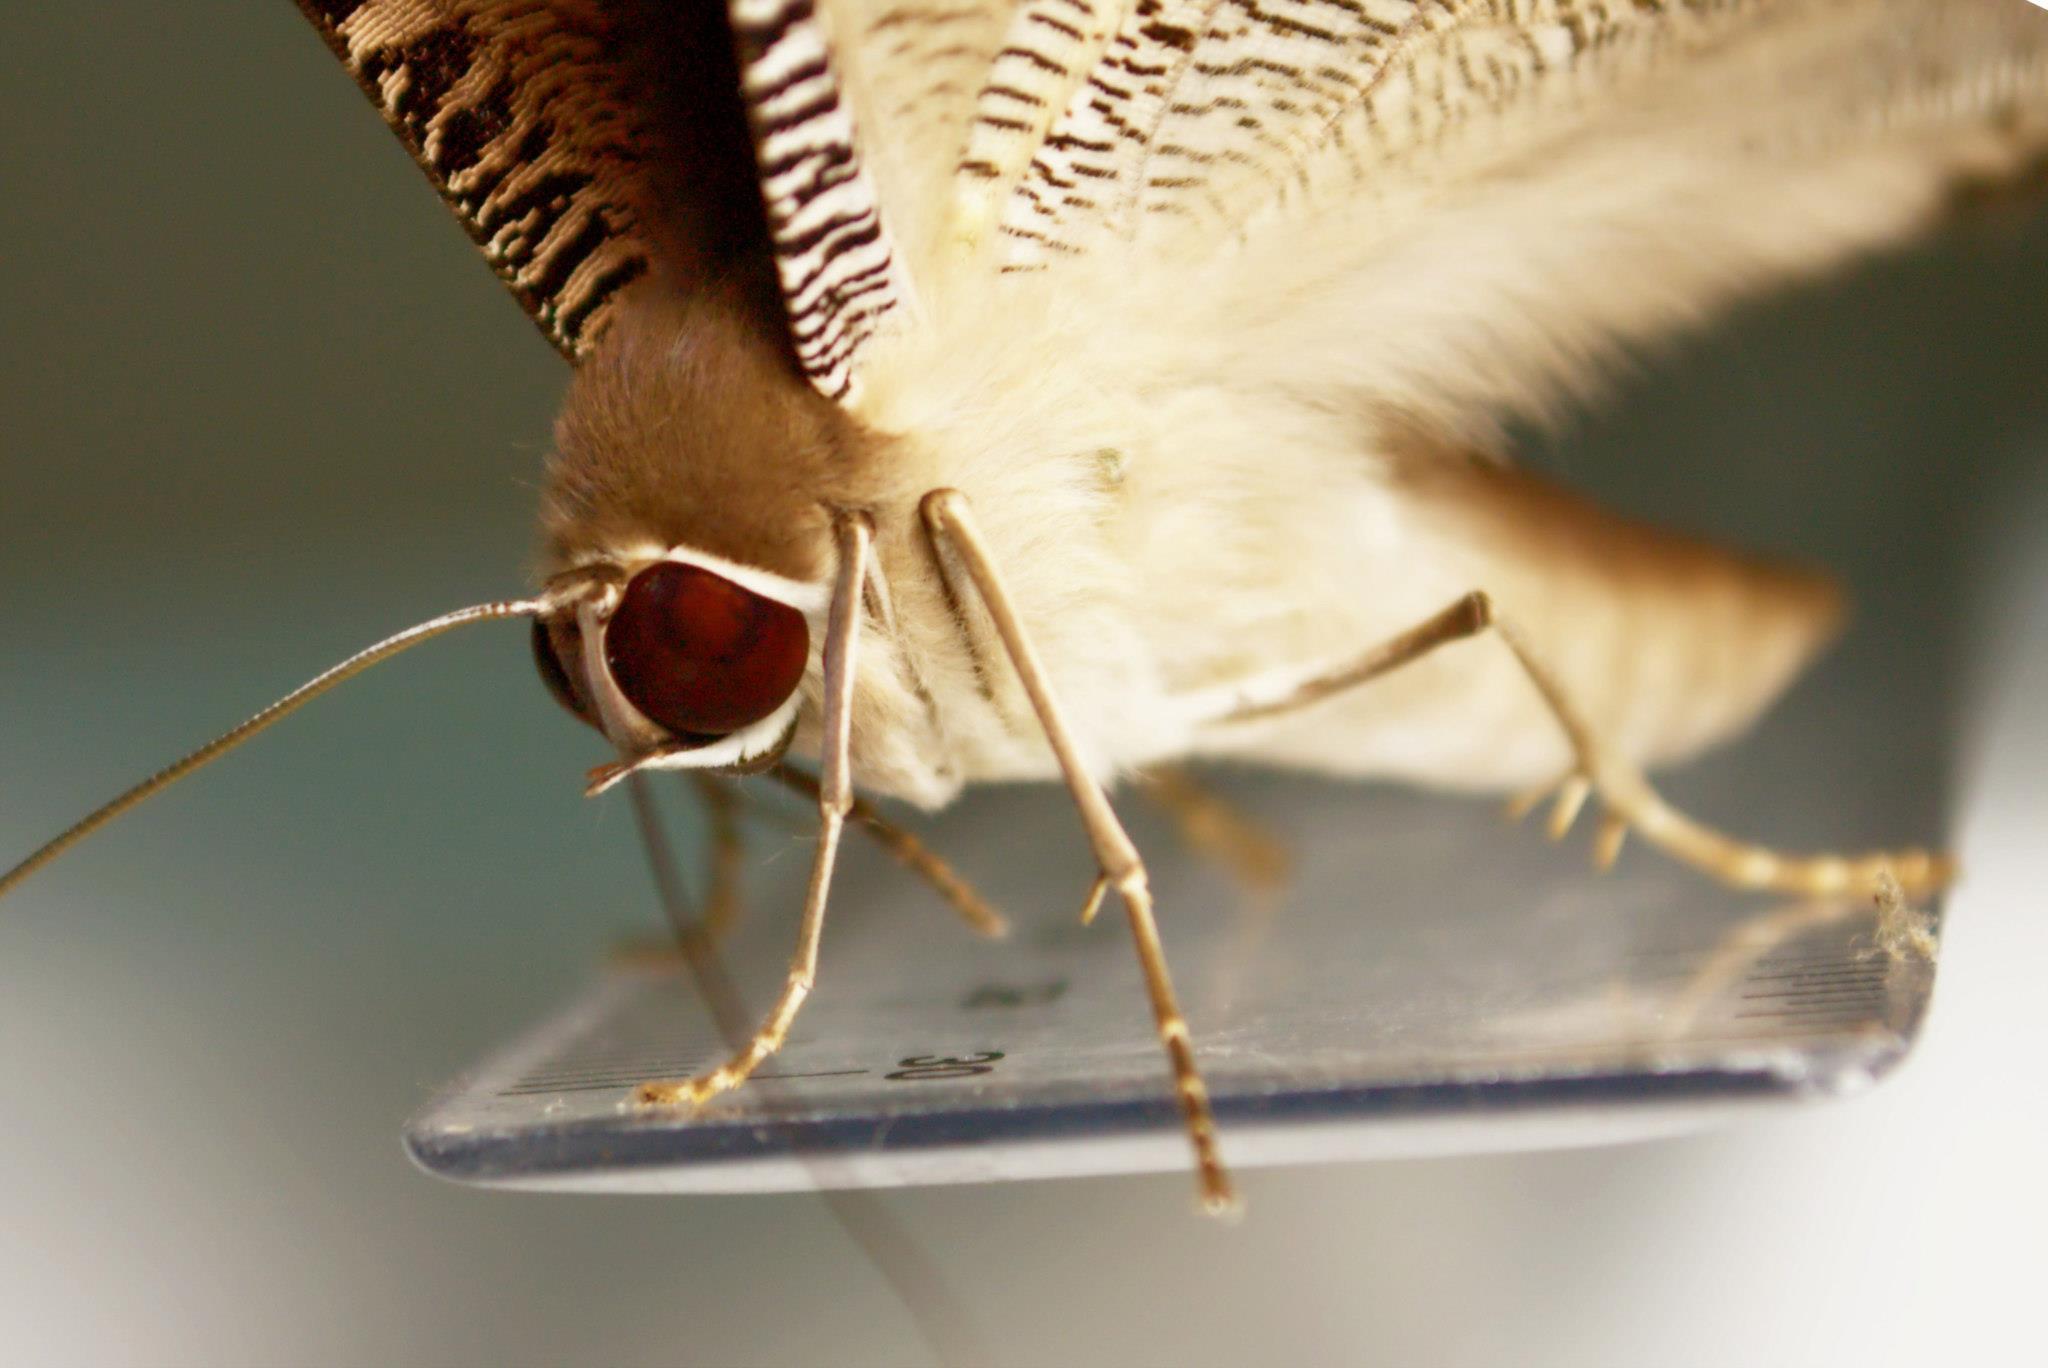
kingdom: Animalia
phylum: Arthropoda
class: Insecta
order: Lepidoptera
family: Uraniidae
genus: Lyssa
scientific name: Lyssa zampa
